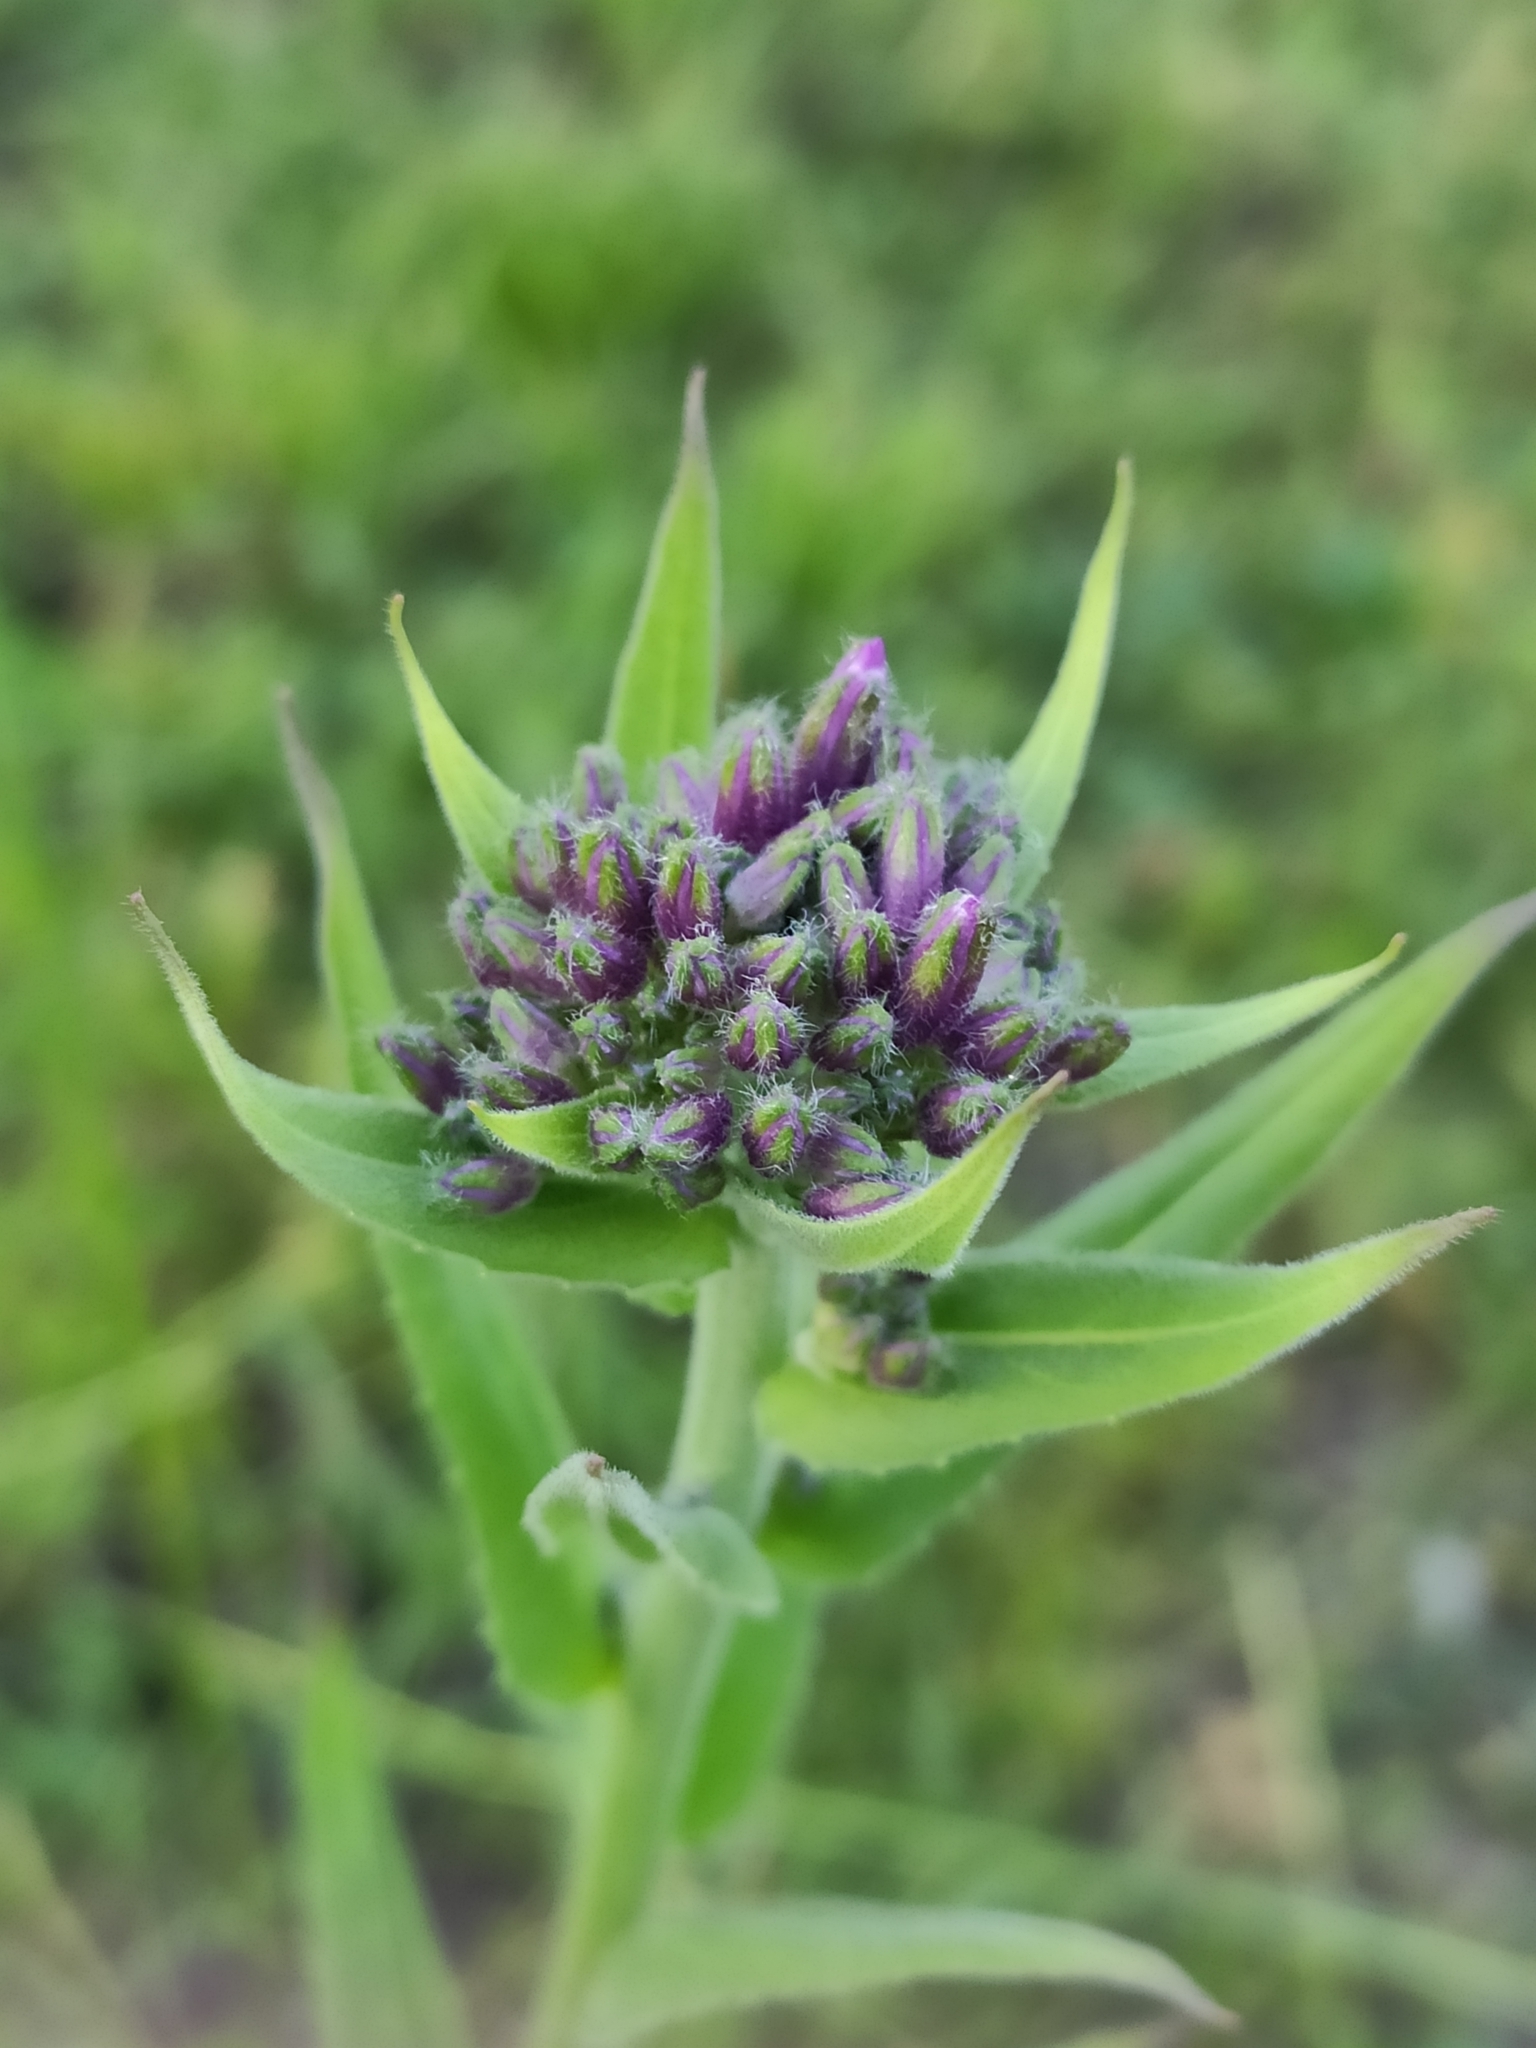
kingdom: Plantae
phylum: Tracheophyta
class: Magnoliopsida
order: Brassicales
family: Brassicaceae
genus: Hesperis
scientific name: Hesperis matronalis
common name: Dame's-violet
